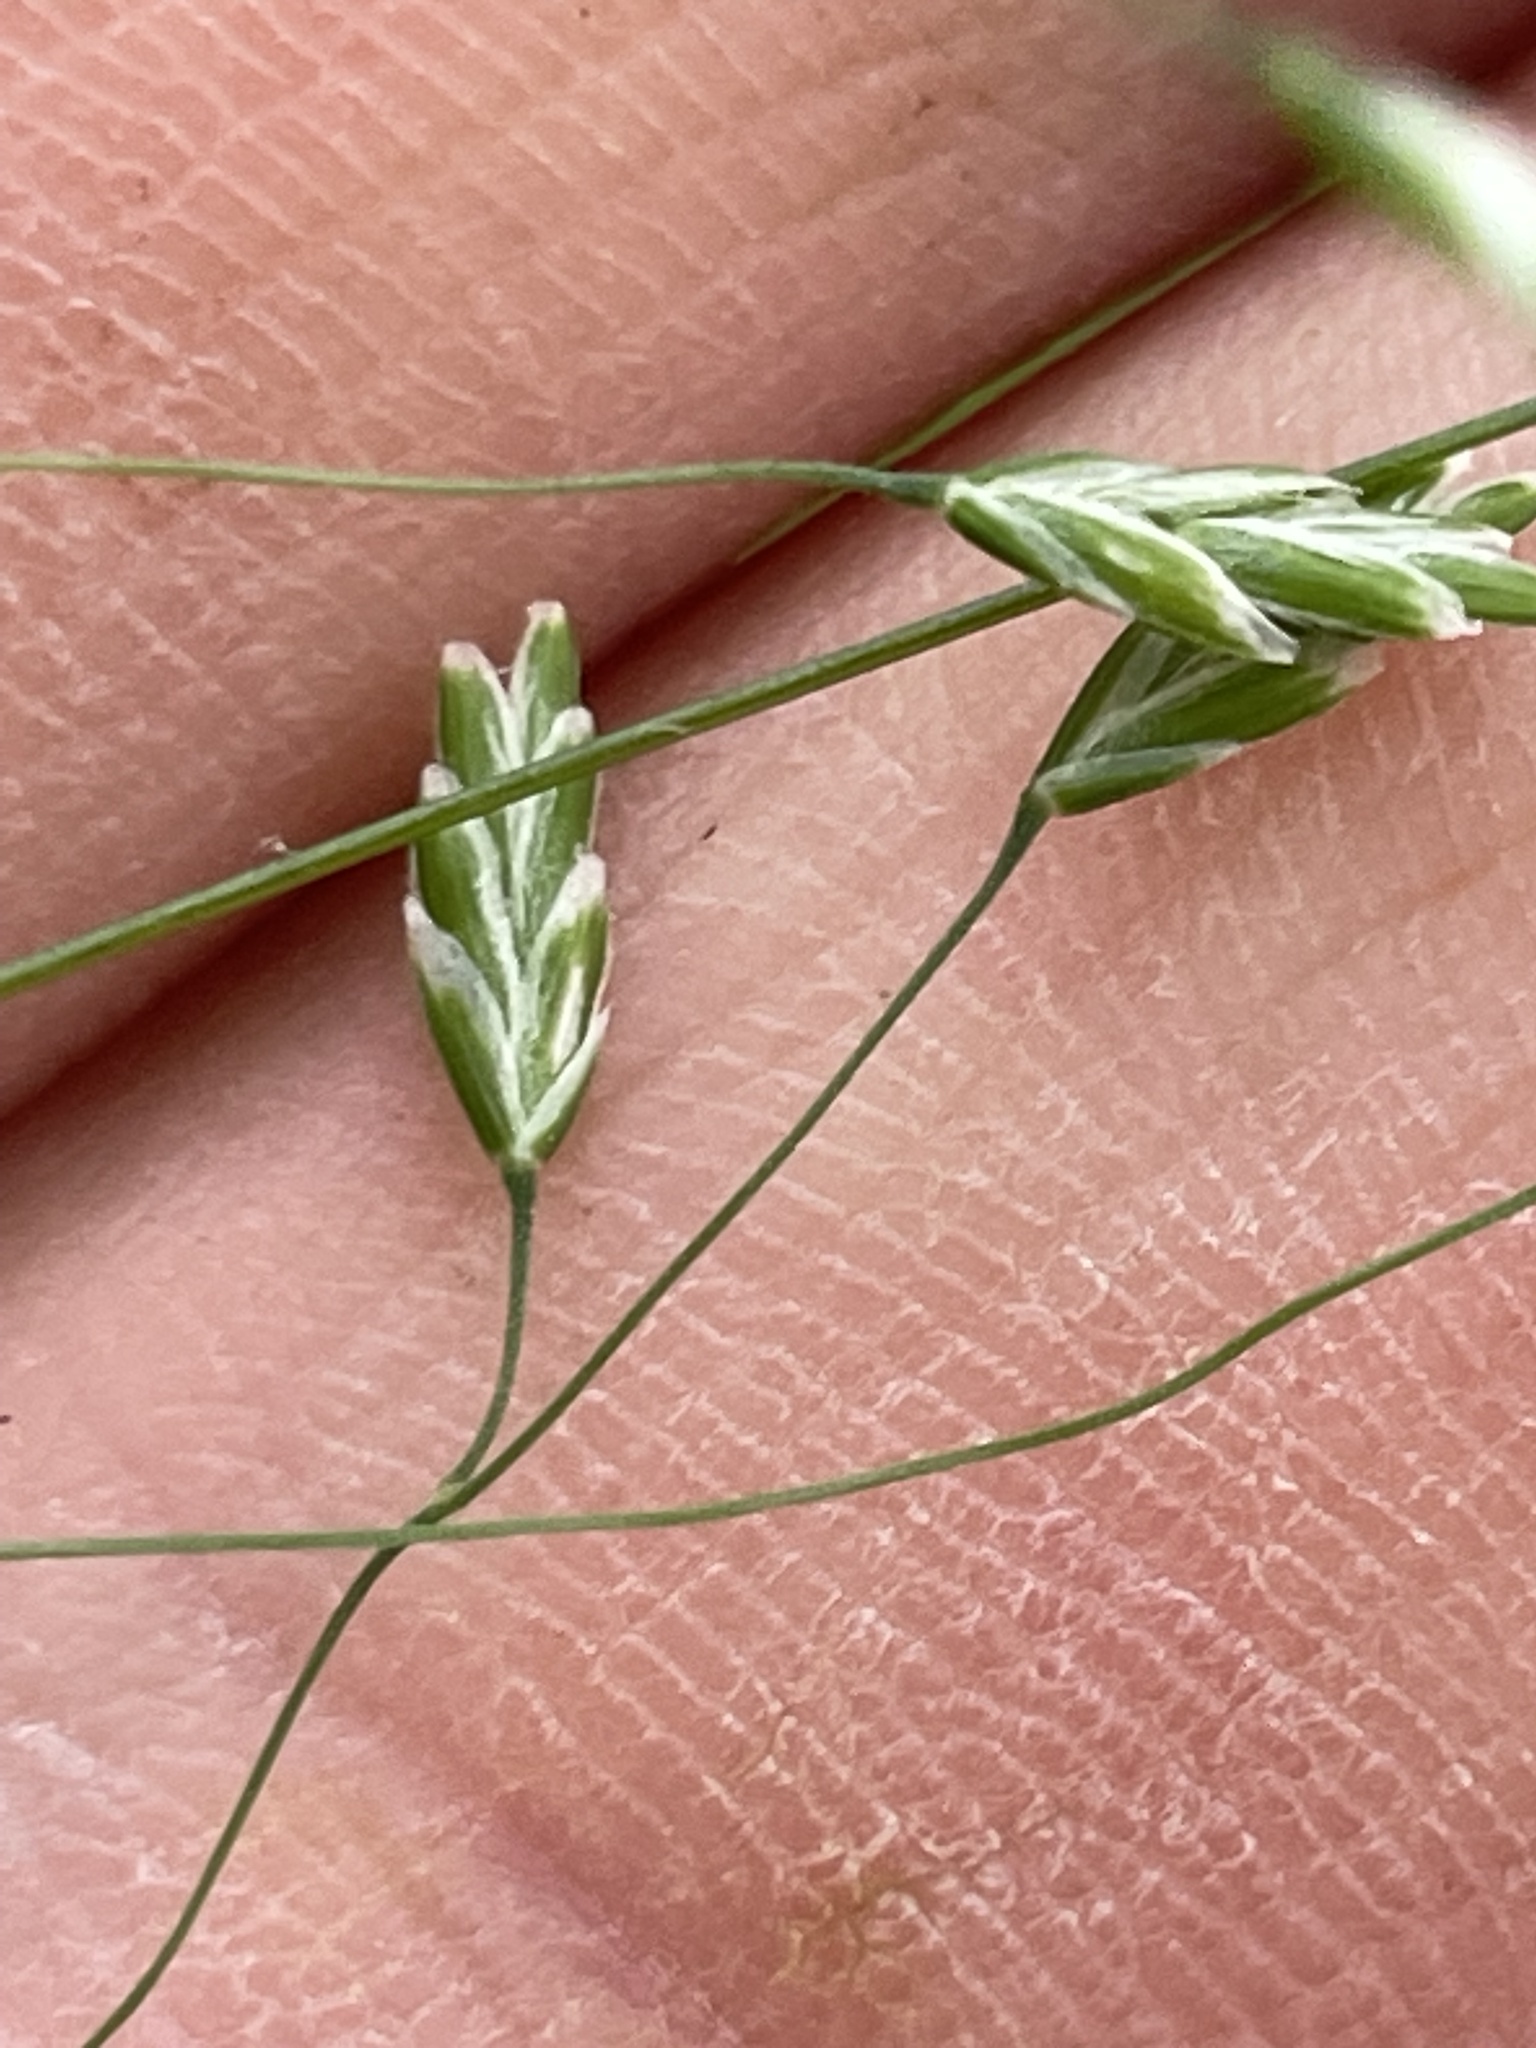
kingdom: Plantae
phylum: Tracheophyta
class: Liliopsida
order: Poales
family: Poaceae
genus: Poa
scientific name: Poa autumnalis
